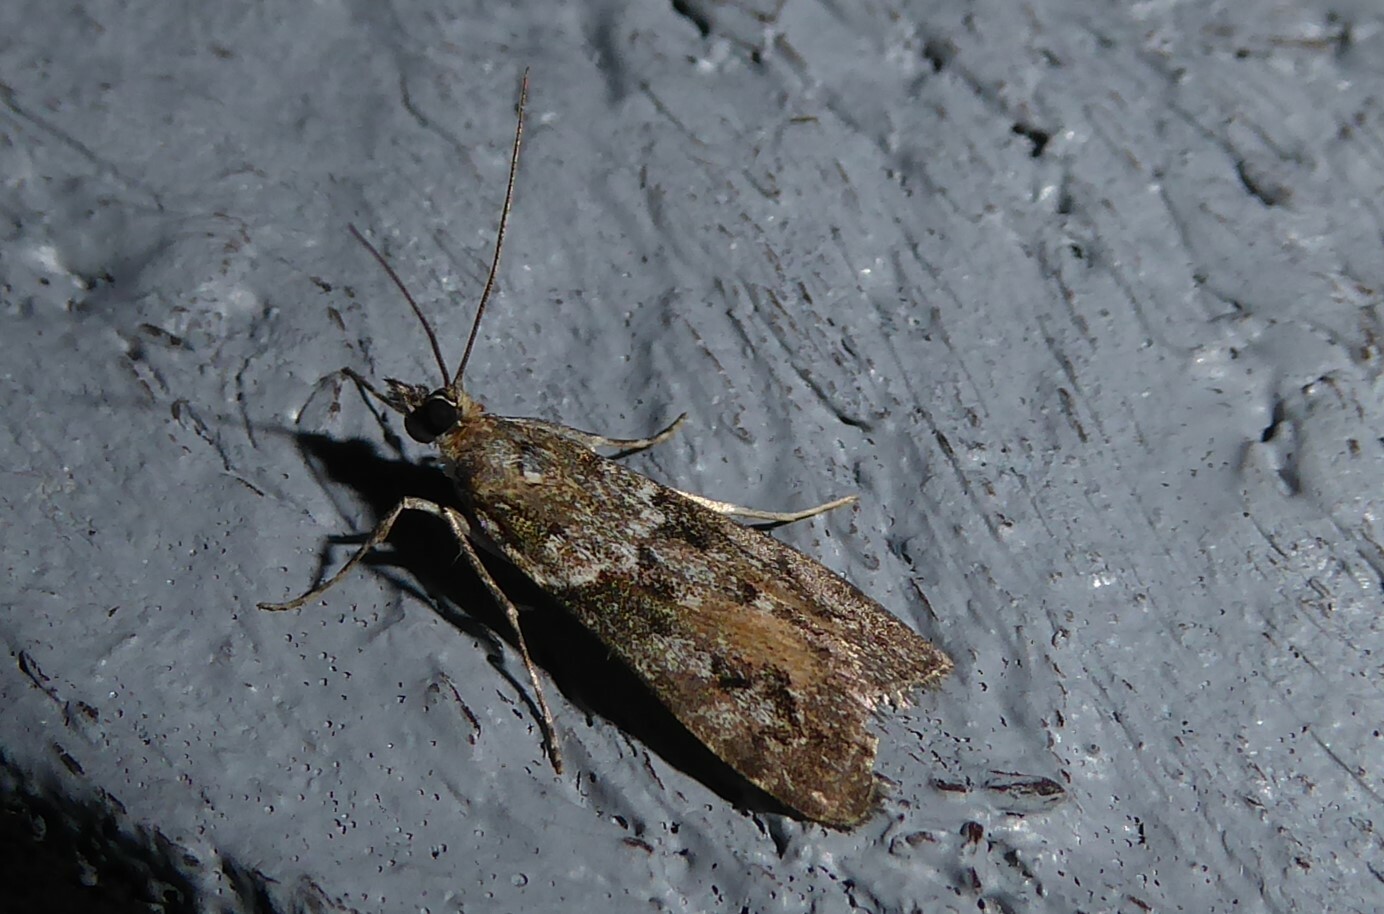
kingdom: Animalia
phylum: Arthropoda
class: Insecta
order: Lepidoptera
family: Crambidae
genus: Eudonia
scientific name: Eudonia submarginalis
